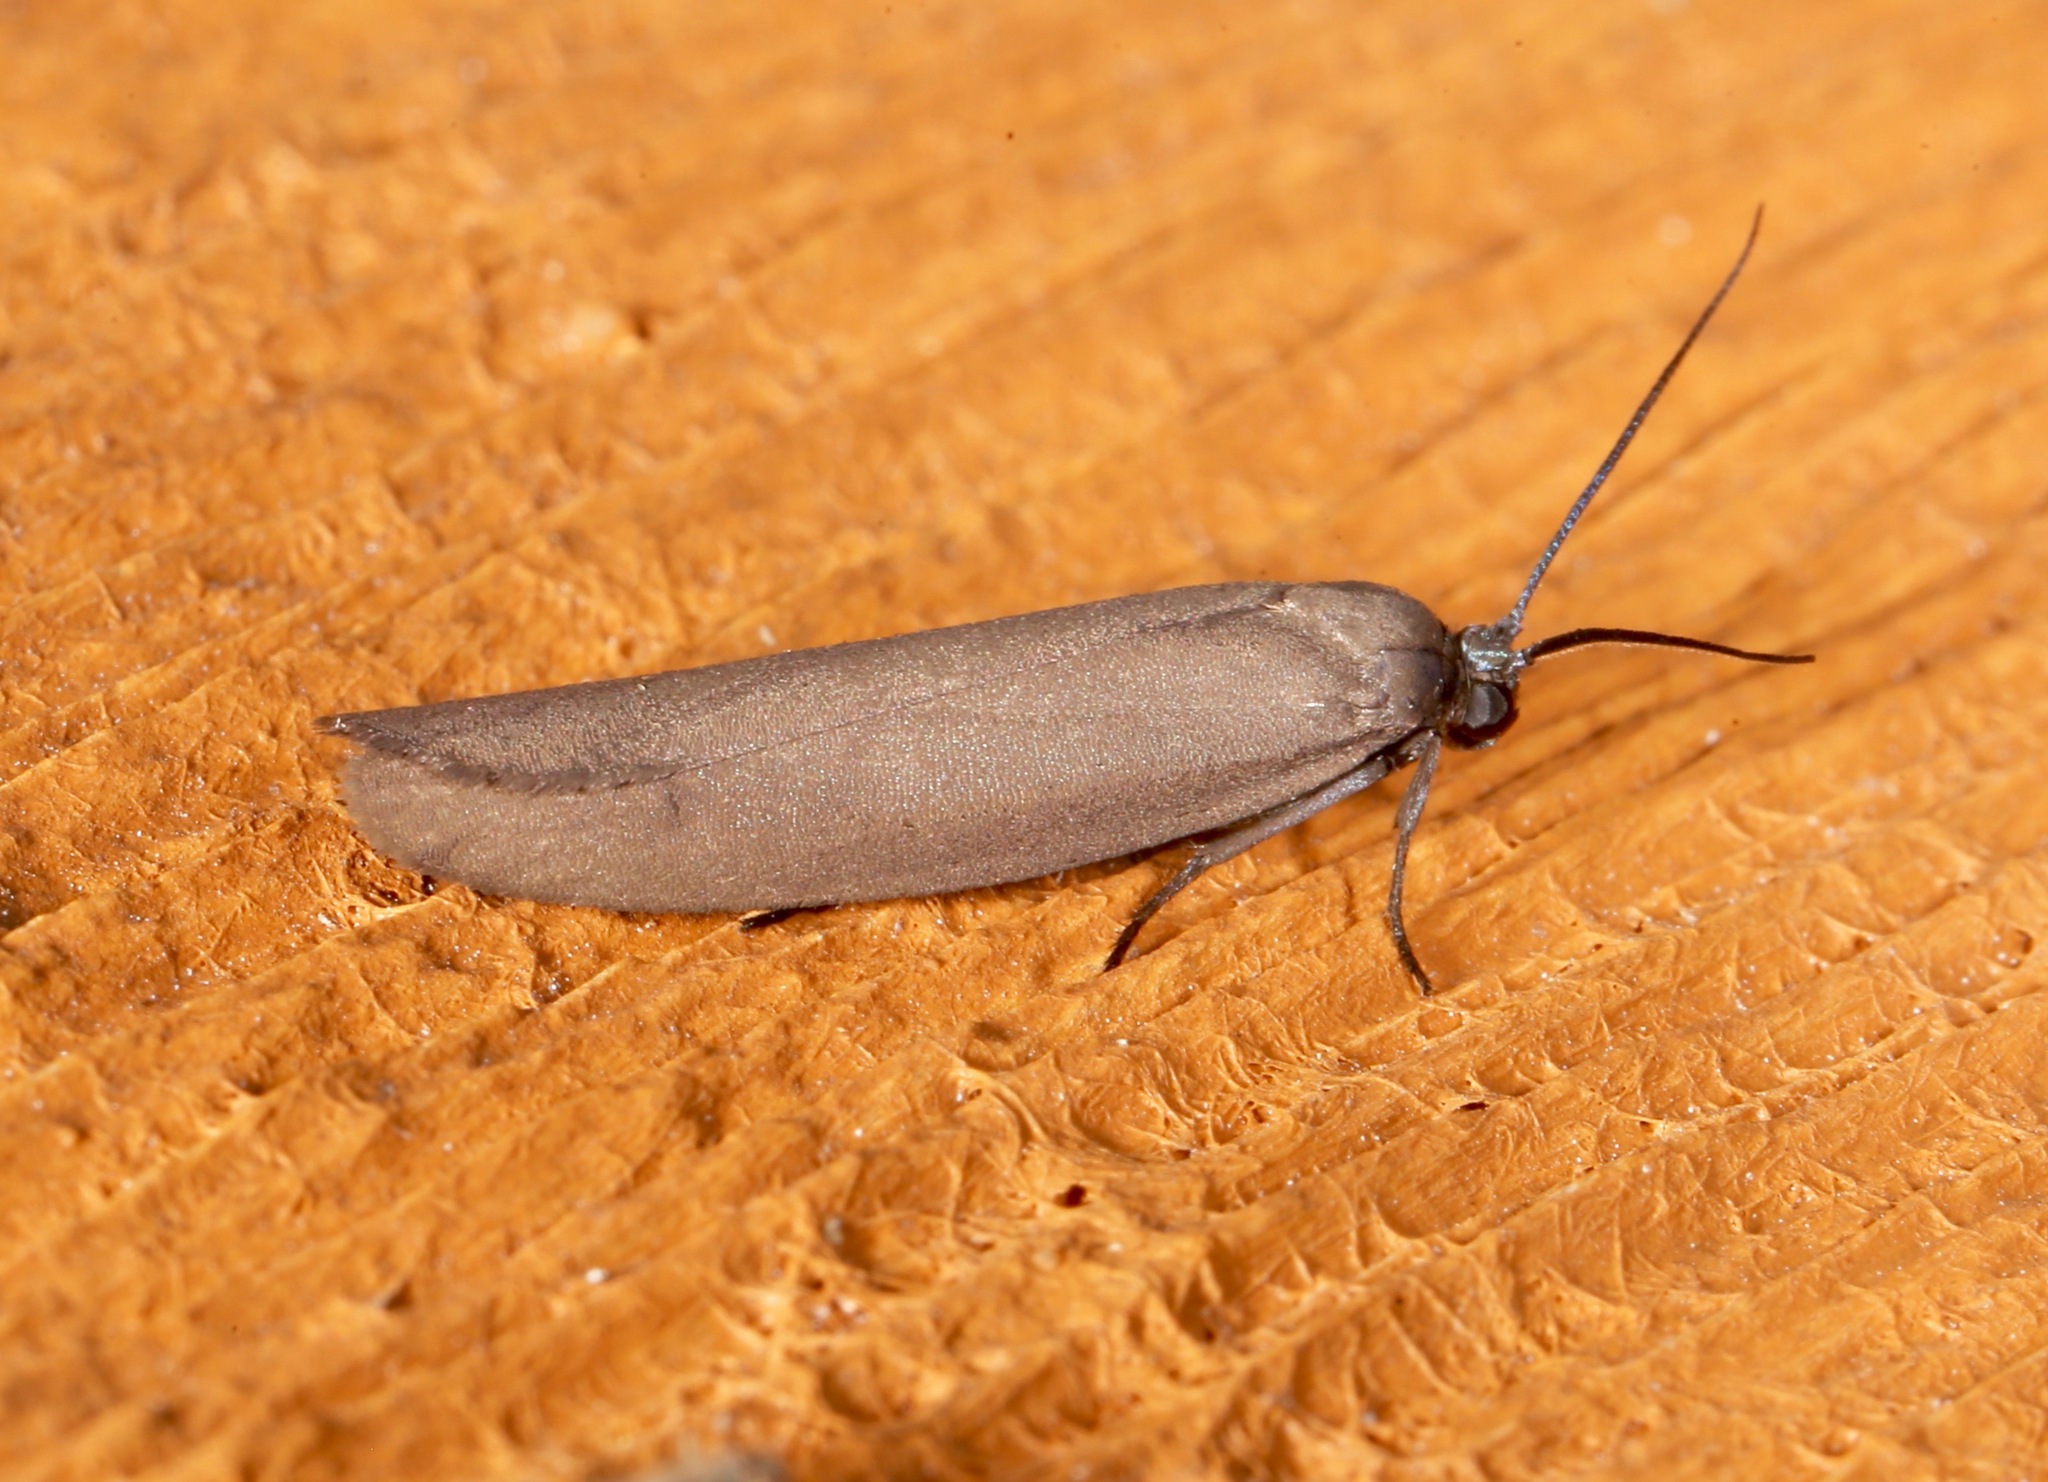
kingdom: Animalia
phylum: Arthropoda
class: Insecta
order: Lepidoptera
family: Urodidae
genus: Urodus
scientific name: Urodus parvula
